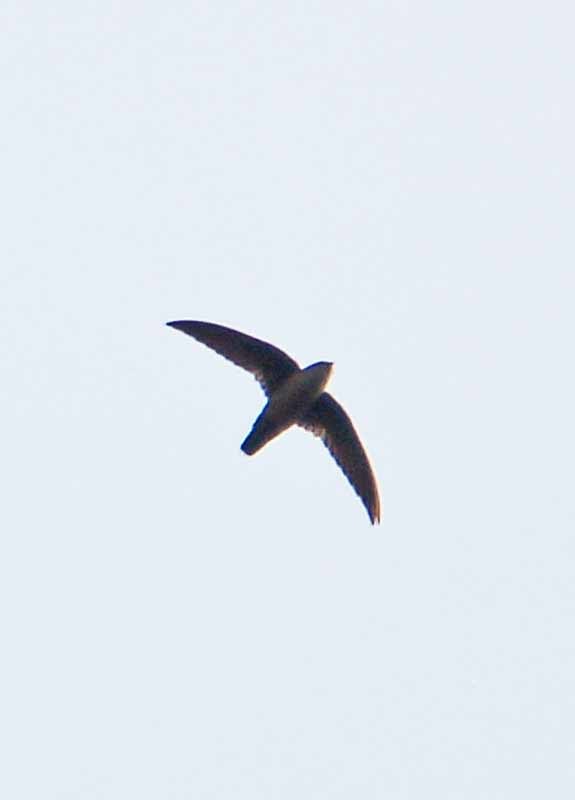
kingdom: Animalia
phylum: Chordata
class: Aves
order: Apodiformes
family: Apodidae
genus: Chaetura
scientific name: Chaetura vauxi
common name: Vaux's swift
